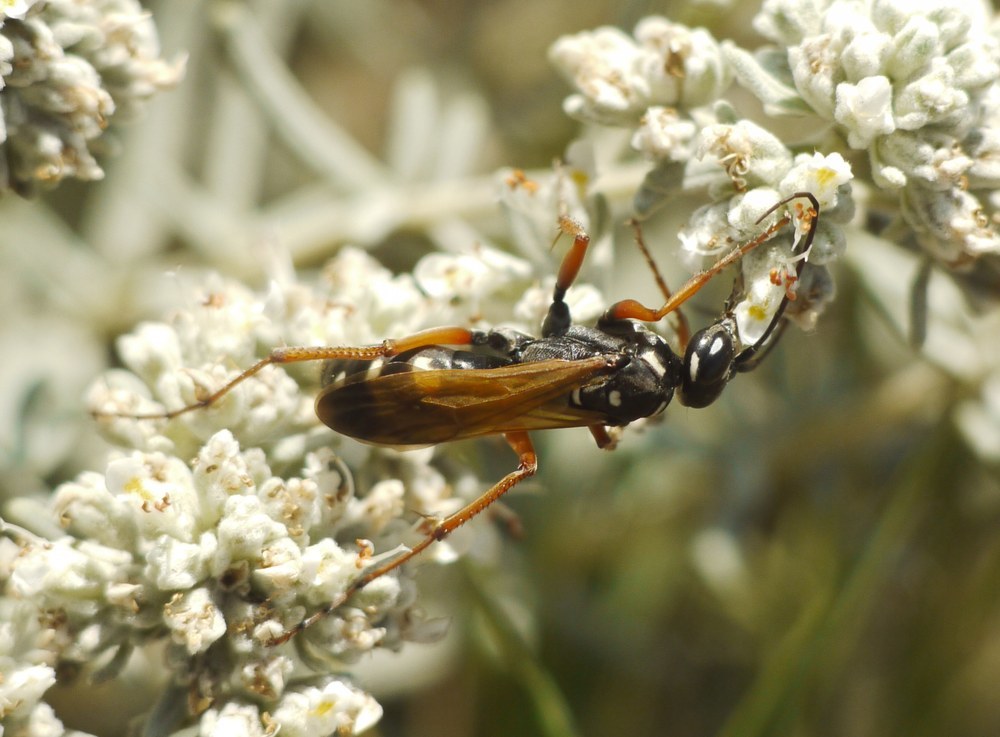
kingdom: Animalia
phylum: Arthropoda
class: Insecta
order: Hymenoptera
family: Pompilidae
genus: Cryptocheilus
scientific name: Cryptocheilus variabilis
